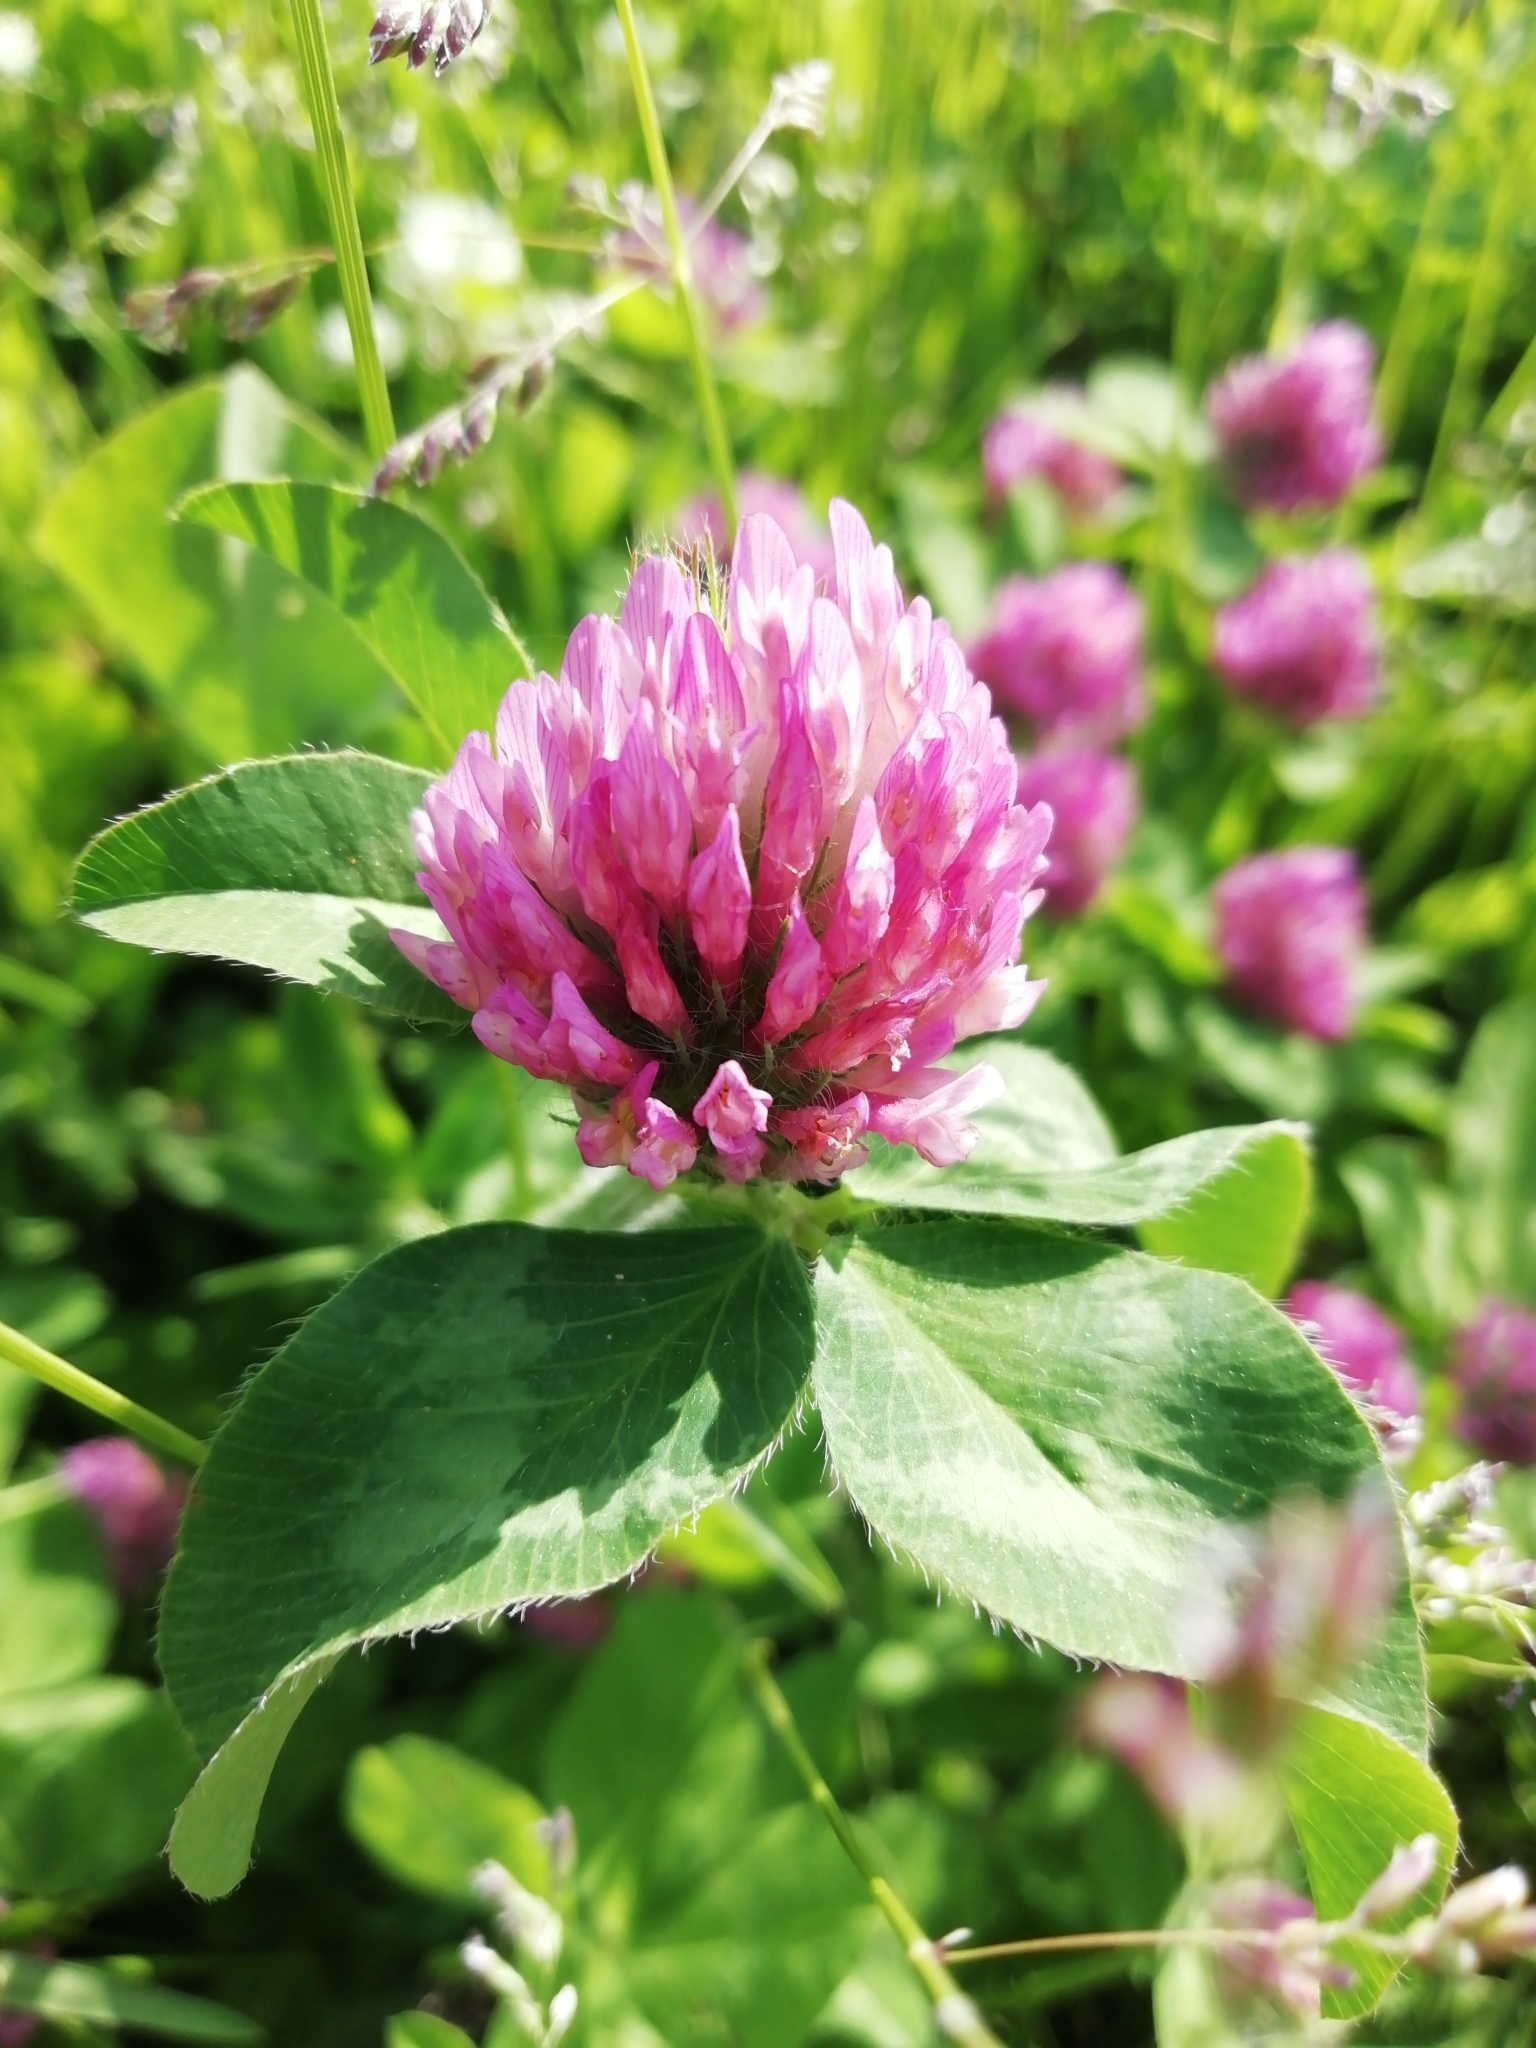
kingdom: Plantae
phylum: Tracheophyta
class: Magnoliopsida
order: Fabales
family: Fabaceae
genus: Trifolium
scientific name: Trifolium pratense
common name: Red clover
